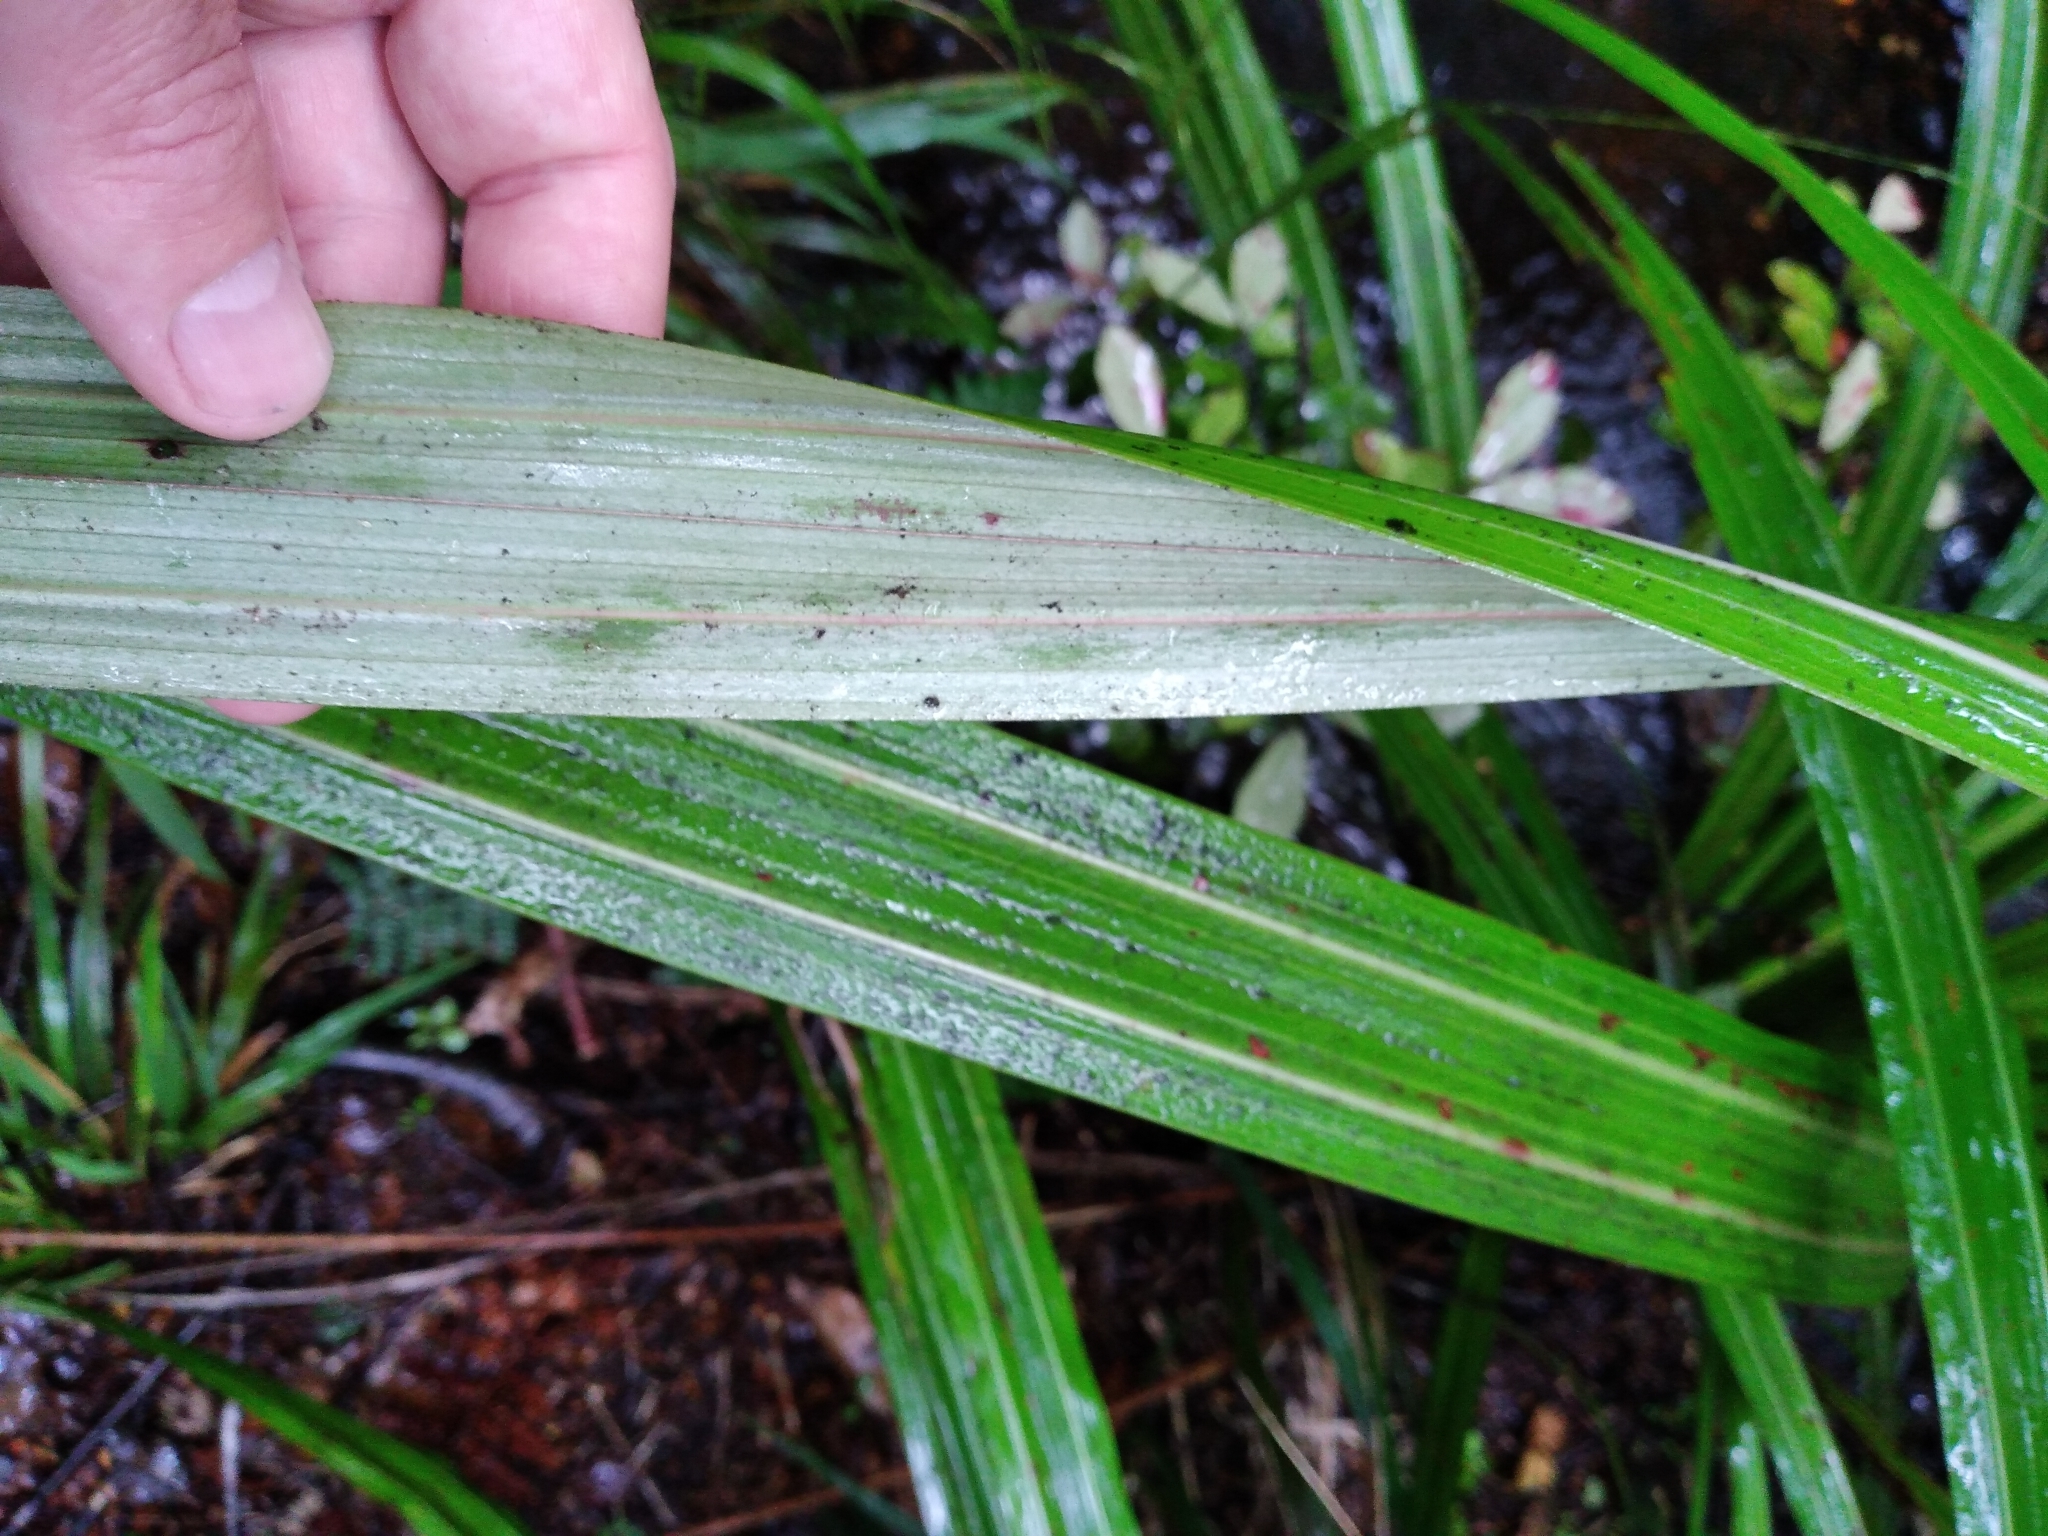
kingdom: Plantae
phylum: Tracheophyta
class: Liliopsida
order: Asparagales
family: Asteliaceae
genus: Astelia
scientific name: Astelia fragrans
